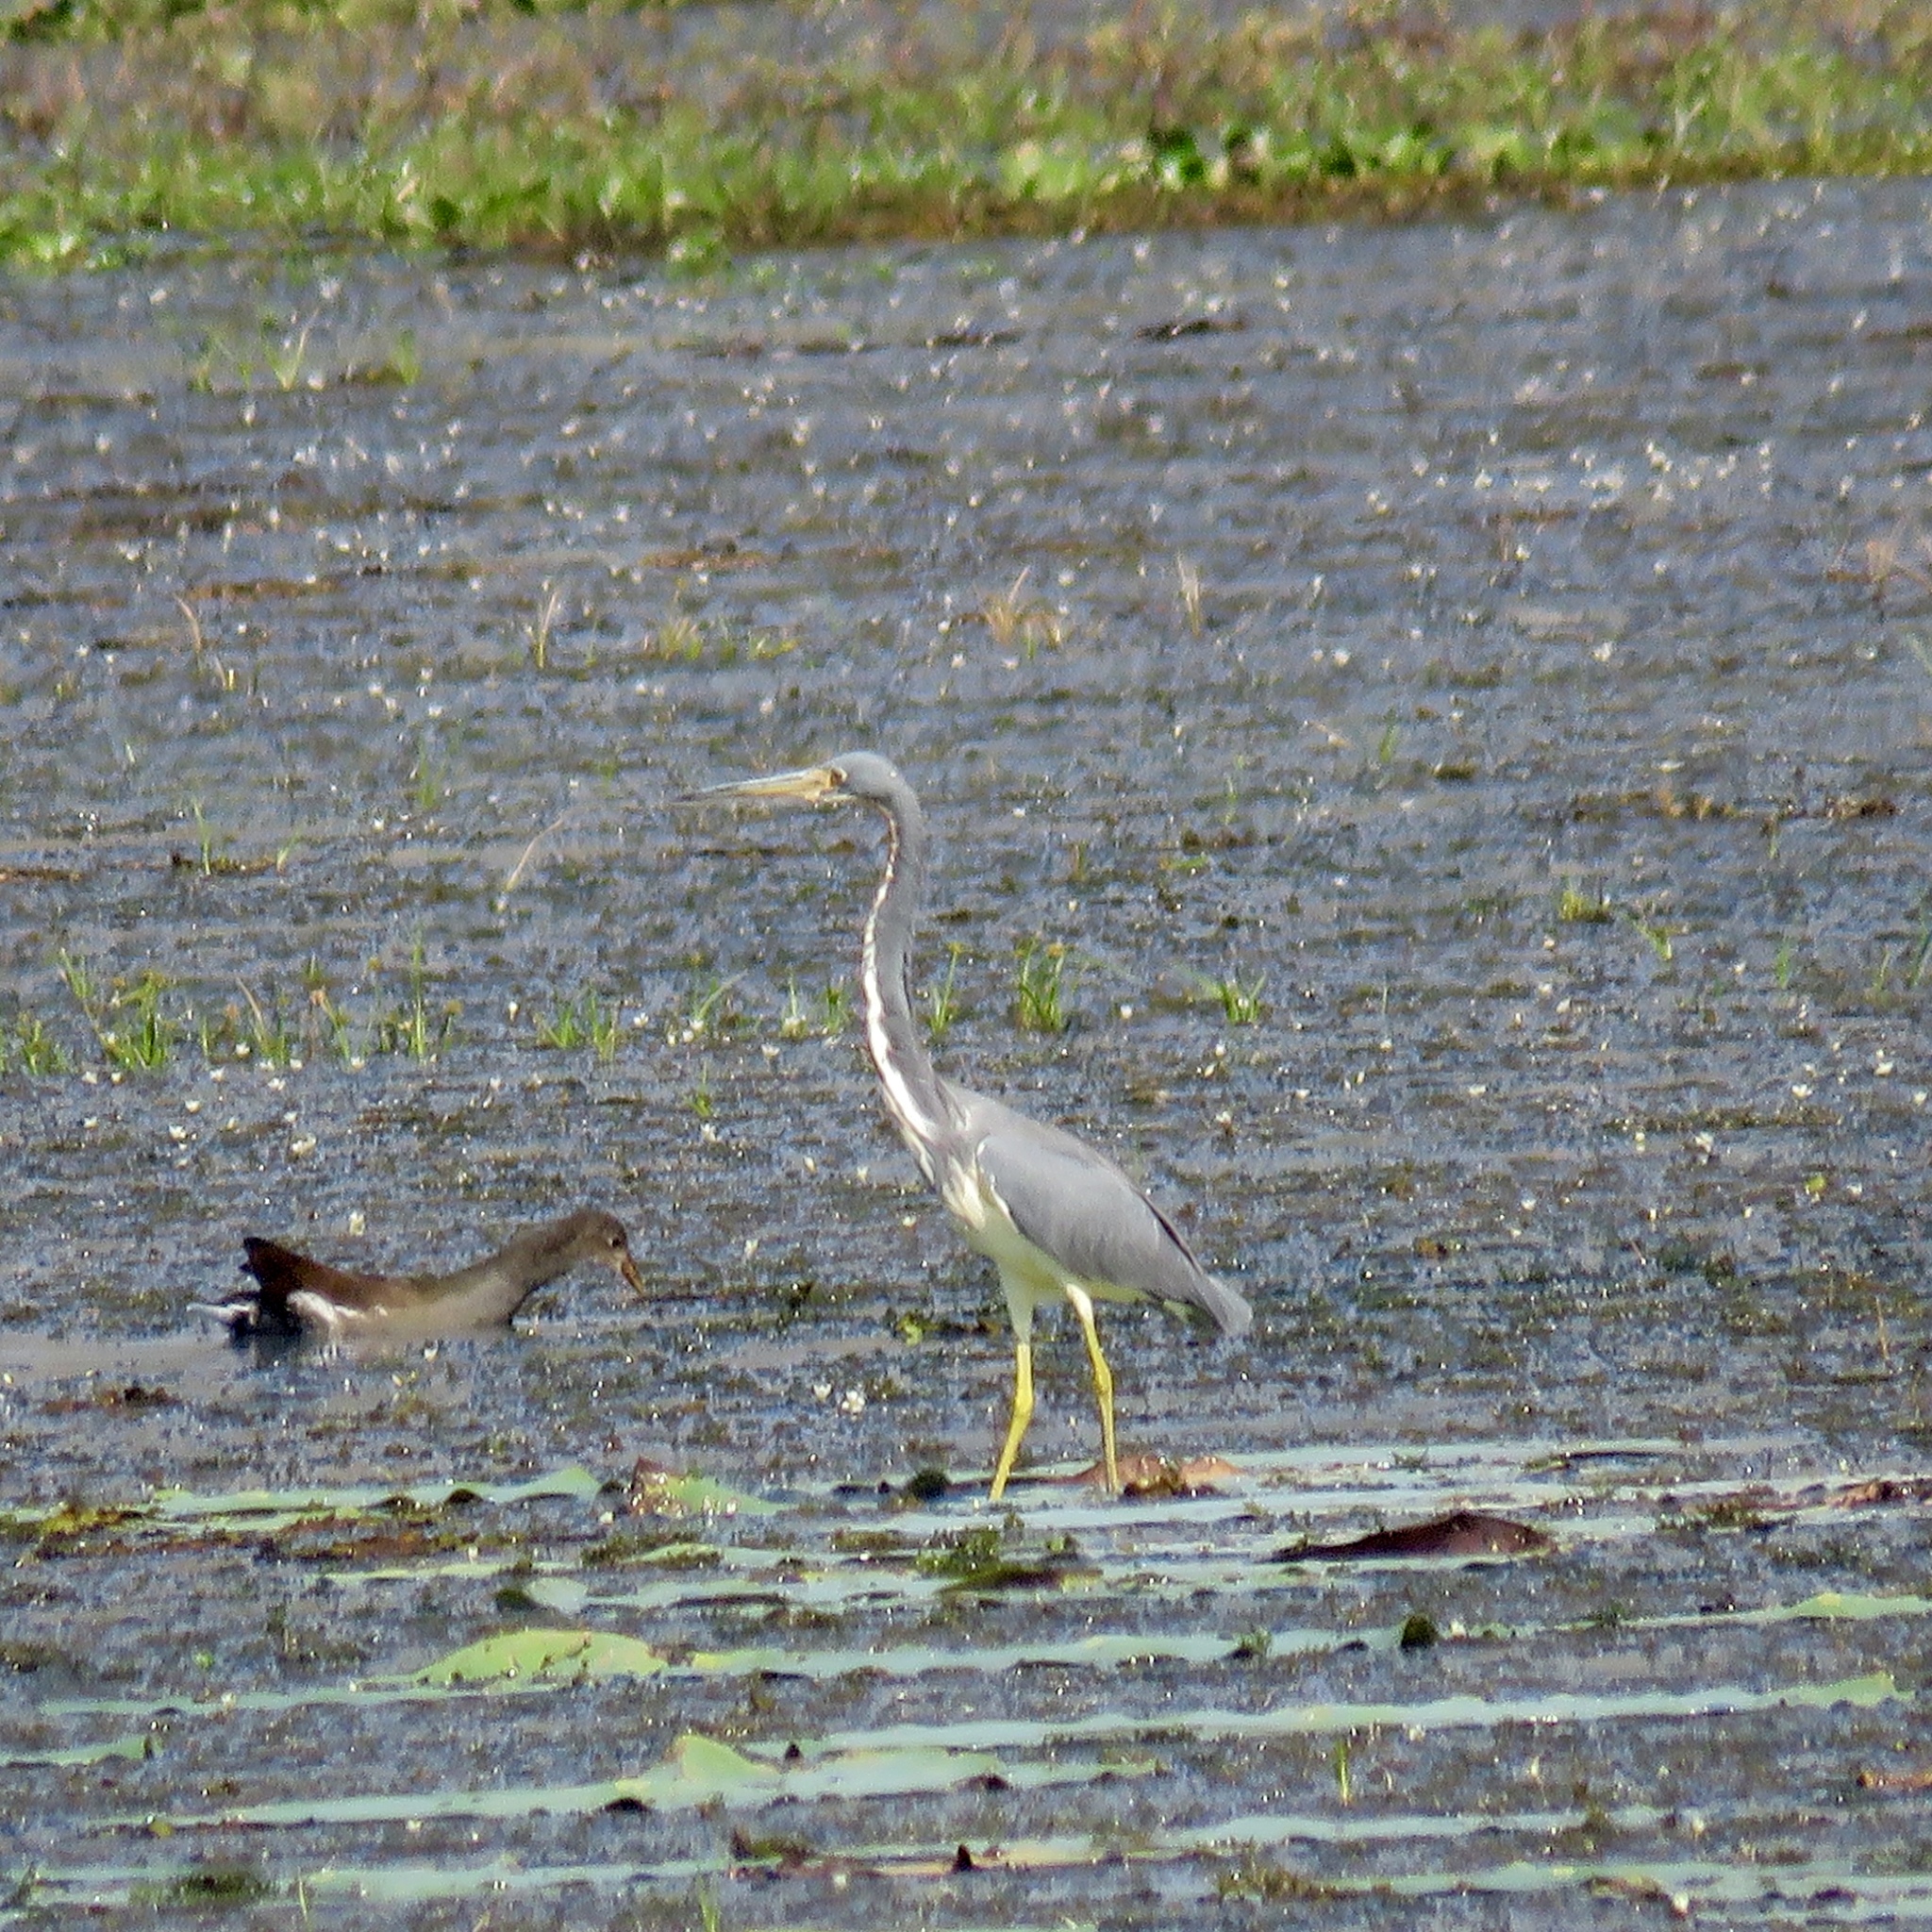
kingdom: Animalia
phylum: Chordata
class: Aves
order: Pelecaniformes
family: Ardeidae
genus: Egretta
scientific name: Egretta tricolor
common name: Tricolored heron
